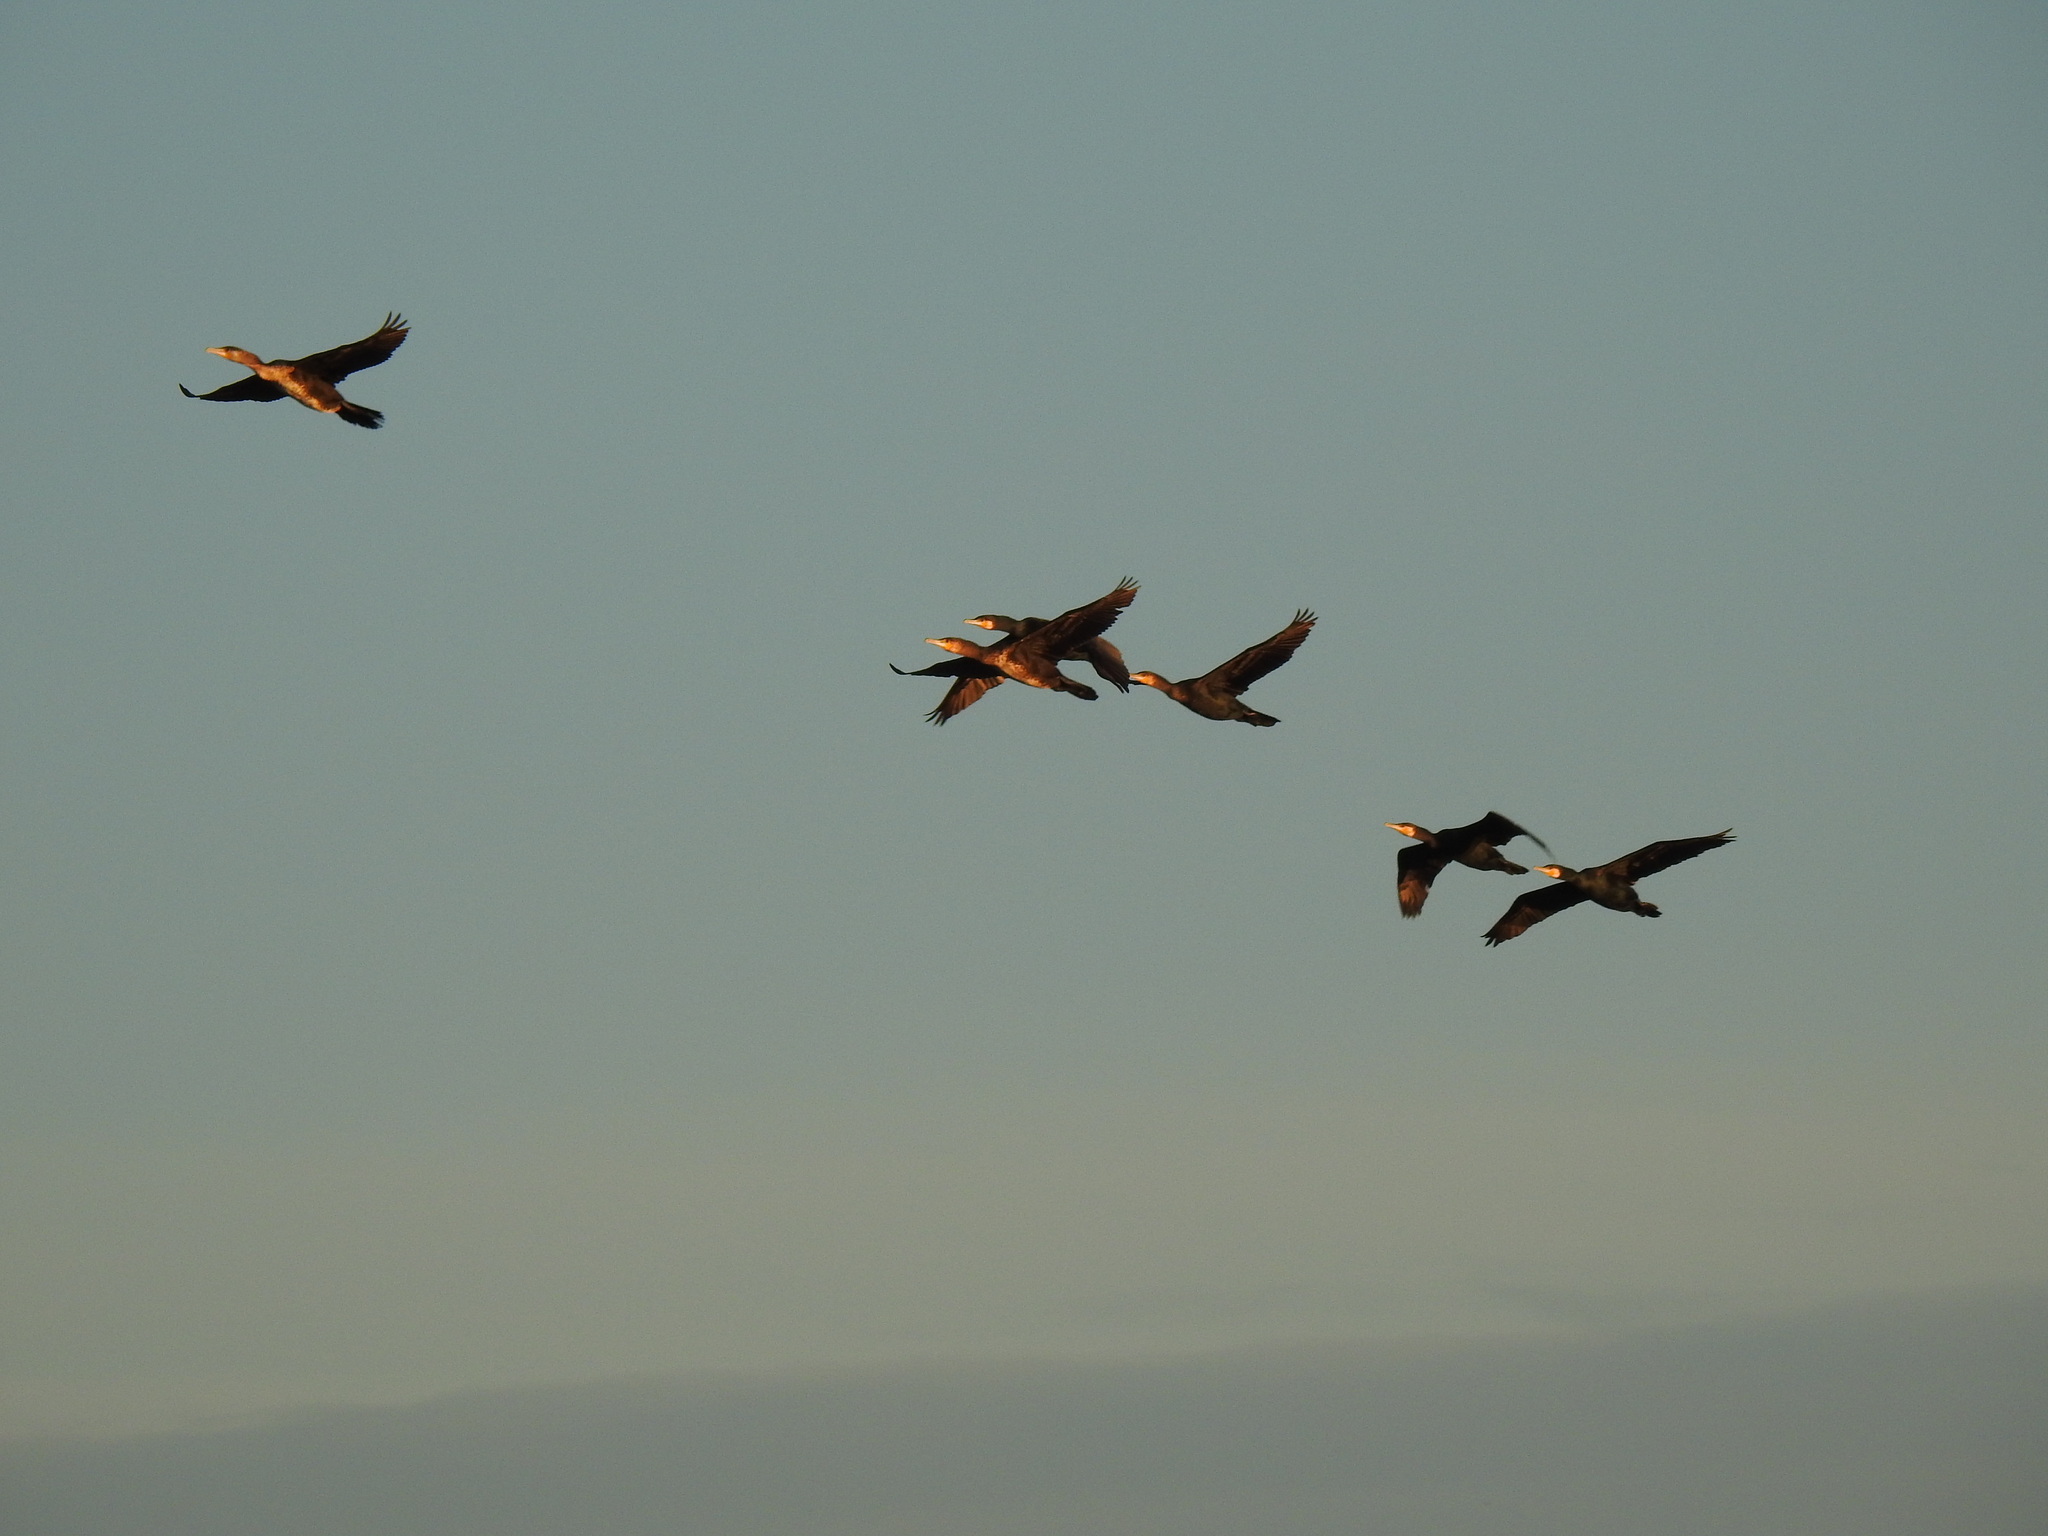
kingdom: Animalia
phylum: Chordata
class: Aves
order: Suliformes
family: Phalacrocoracidae
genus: Phalacrocorax
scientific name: Phalacrocorax carbo
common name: Great cormorant
